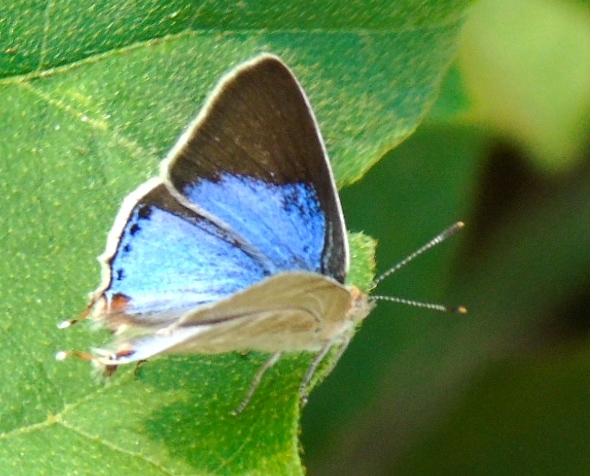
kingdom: Animalia
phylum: Arthropoda
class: Insecta
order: Lepidoptera
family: Lycaenidae
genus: Dolymorpha
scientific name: Dolymorpha jada
